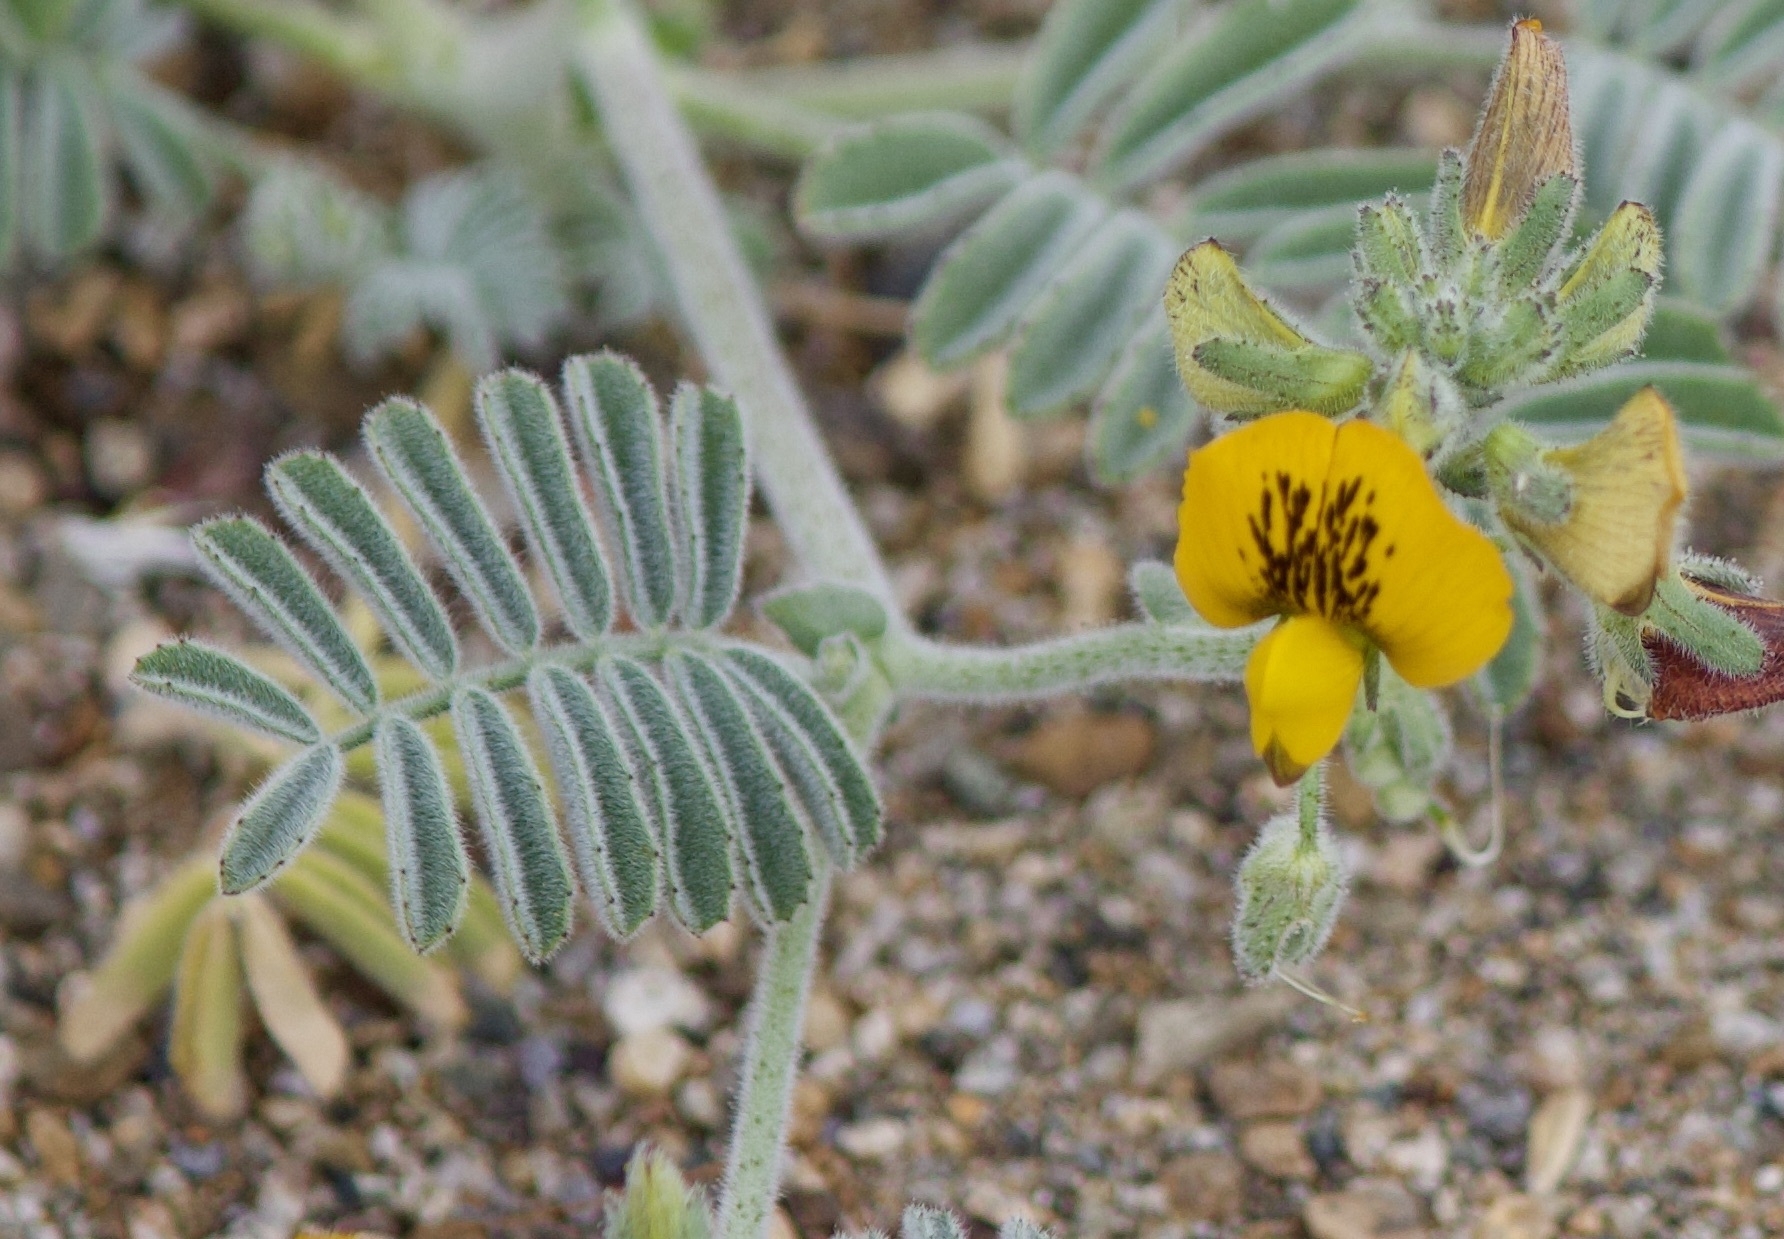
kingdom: Plantae
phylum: Tracheophyta
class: Magnoliopsida
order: Fabales
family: Fabaceae
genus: Adesmia
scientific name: Adesmia eremophila
